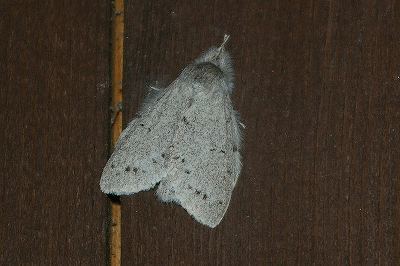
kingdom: Animalia
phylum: Arthropoda
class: Insecta
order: Lepidoptera
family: Notodontidae
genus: Cnethodonta
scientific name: Cnethodonta japonica
